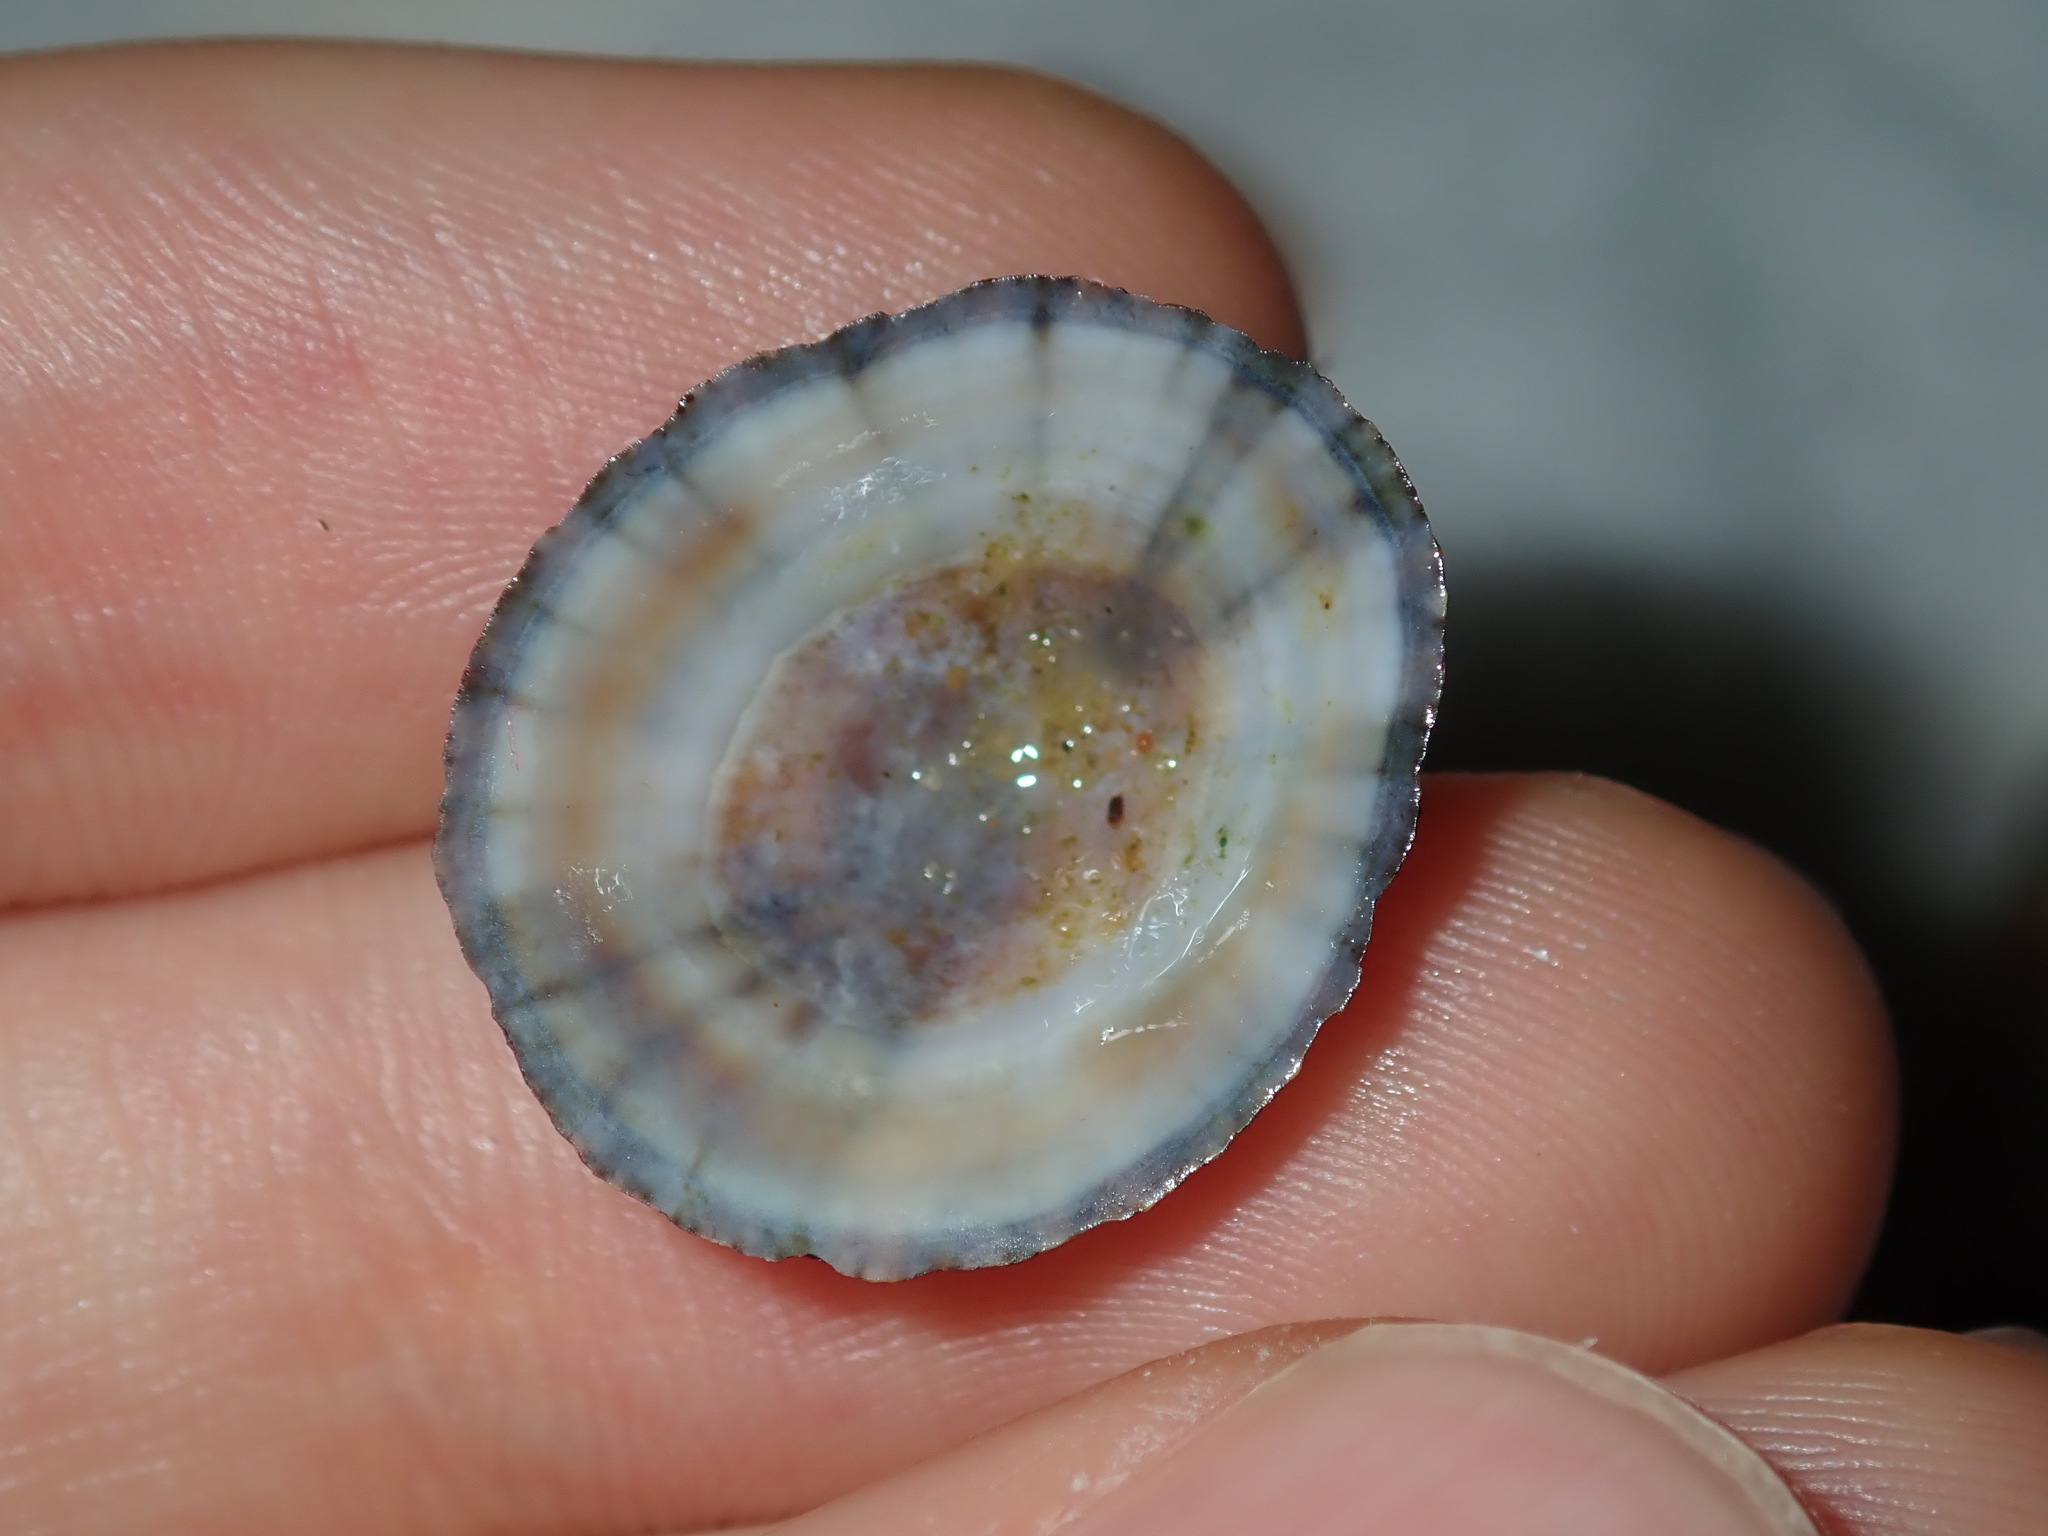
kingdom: Animalia
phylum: Mollusca
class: Gastropoda
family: Nacellidae
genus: Cellana
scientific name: Cellana tramoserica
